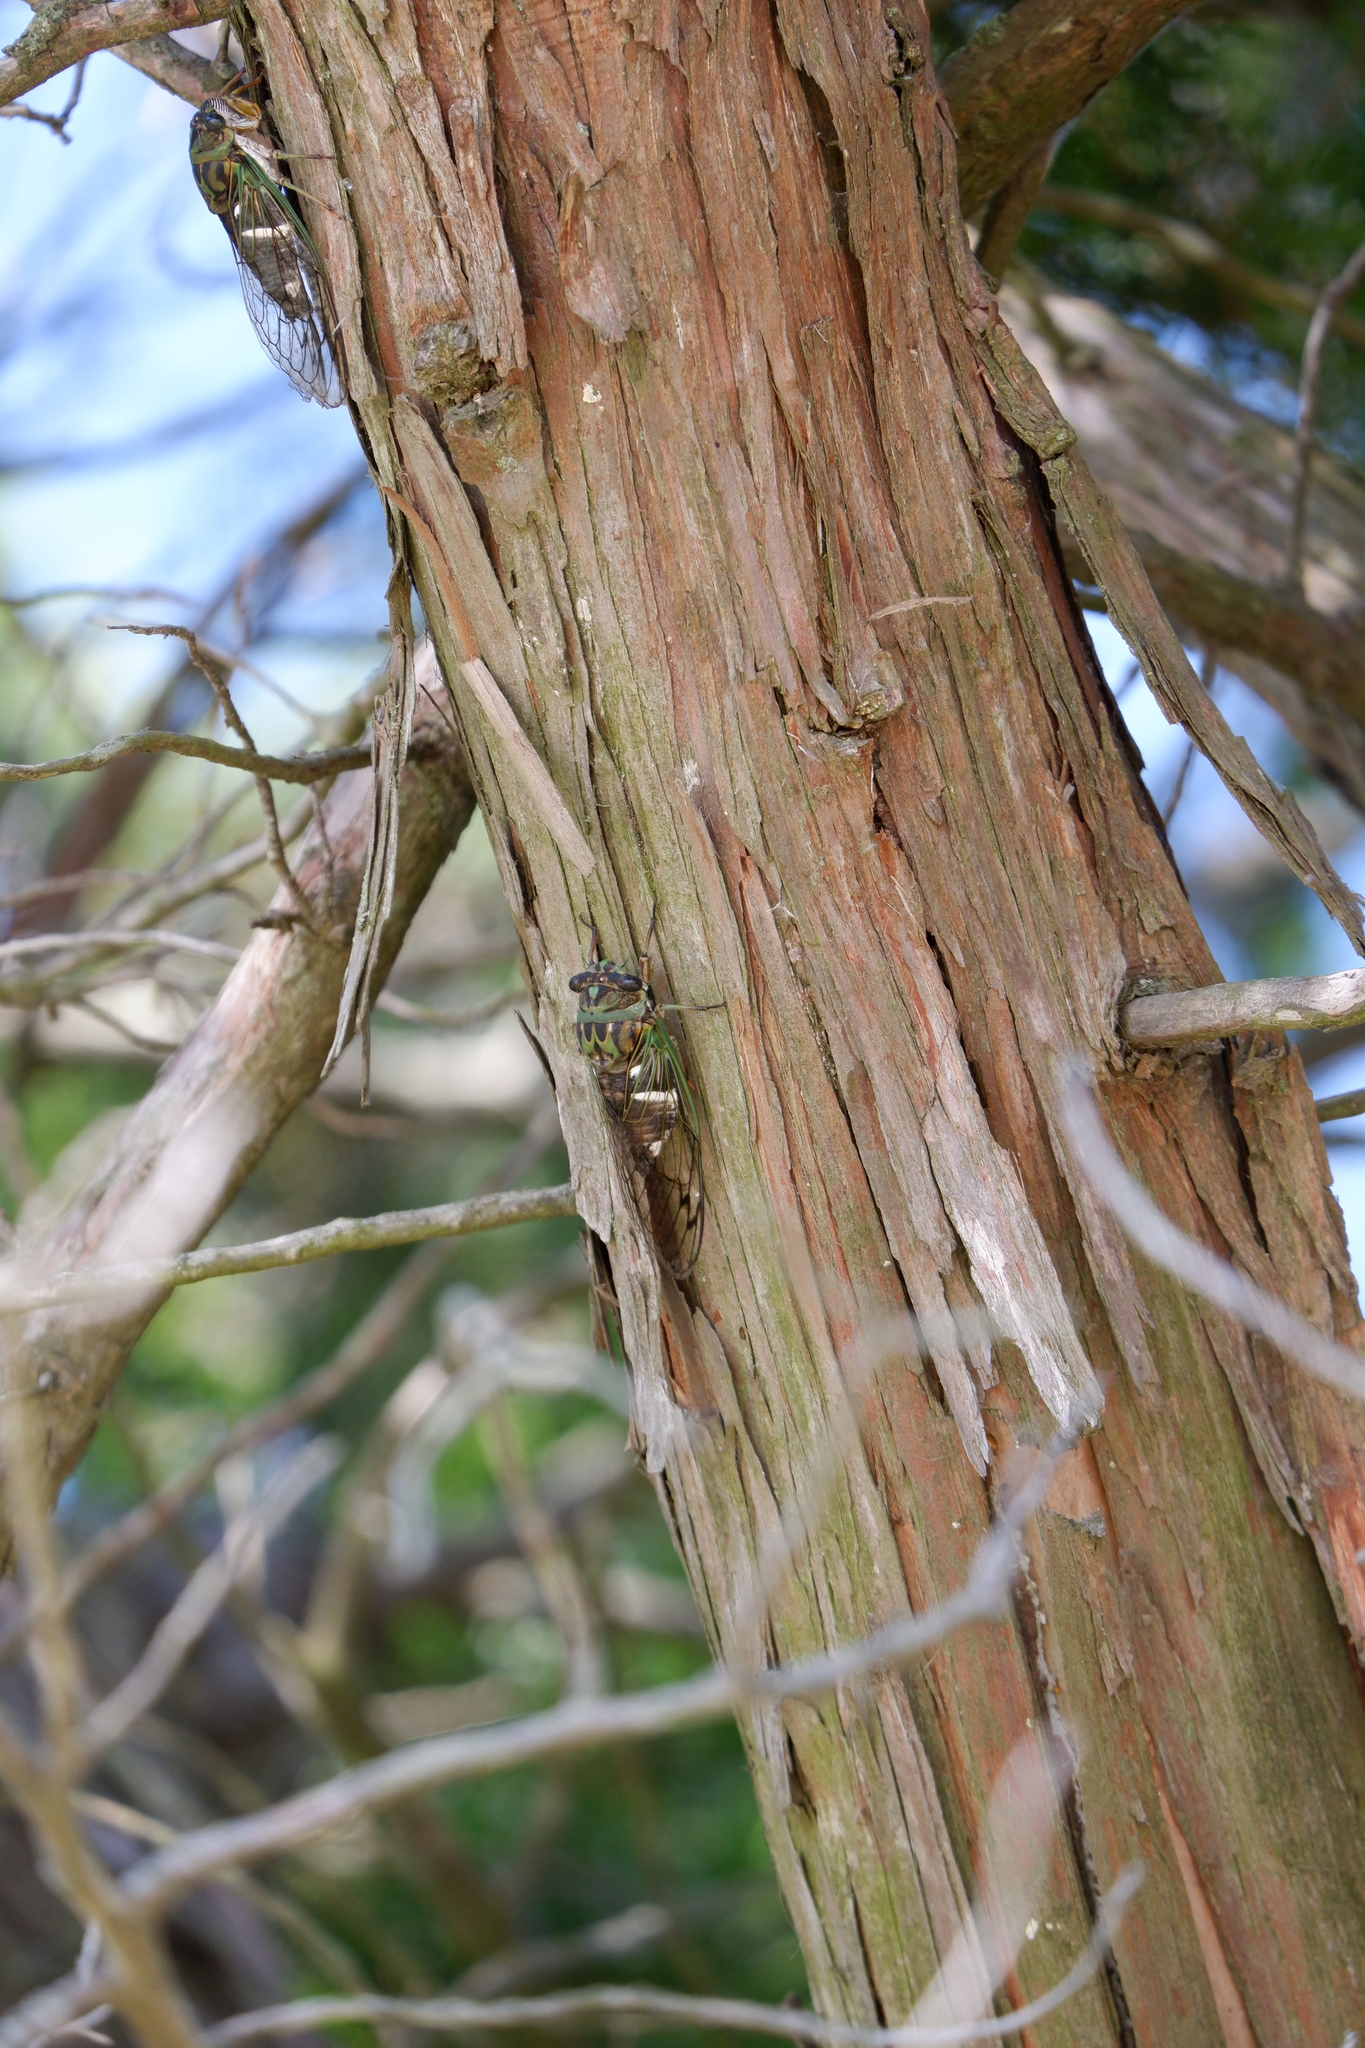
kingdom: Animalia
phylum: Arthropoda
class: Insecta
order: Hemiptera
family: Cicadidae
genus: Neotibicen
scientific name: Neotibicen latifasciatus
